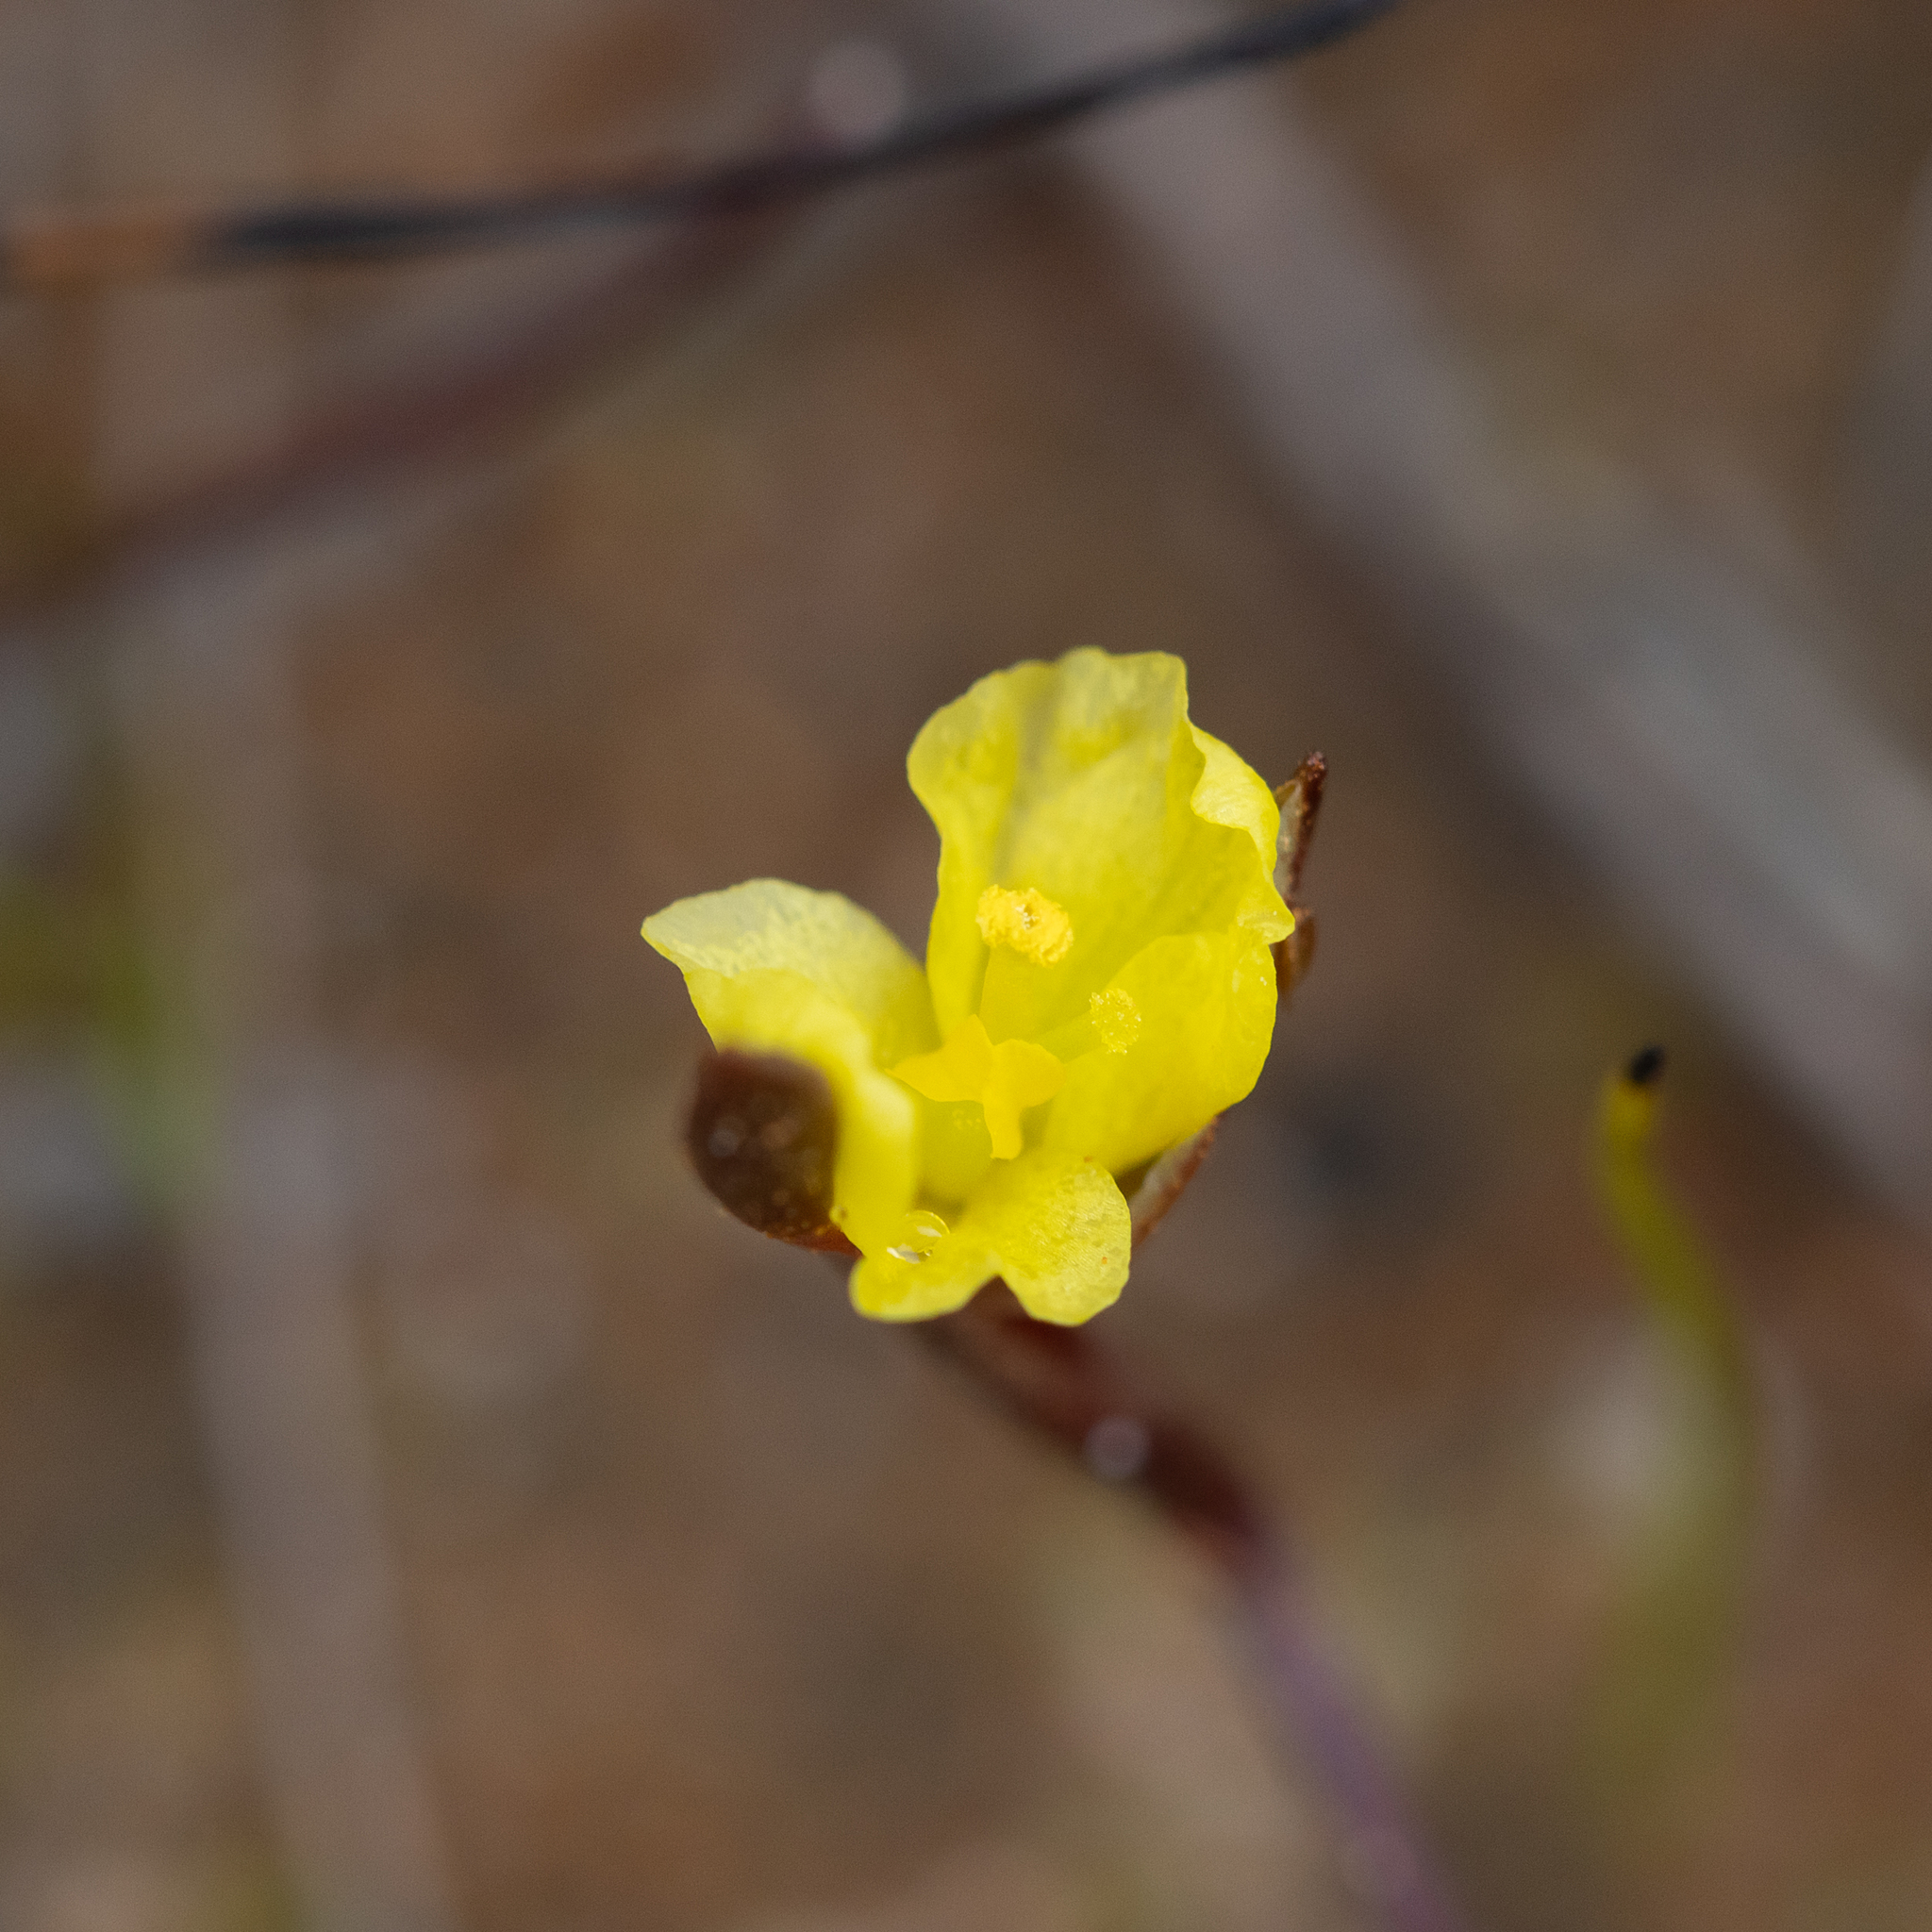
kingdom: Plantae
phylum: Tracheophyta
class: Liliopsida
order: Commelinales
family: Philydraceae
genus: Philydrella
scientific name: Philydrella pygmaea
